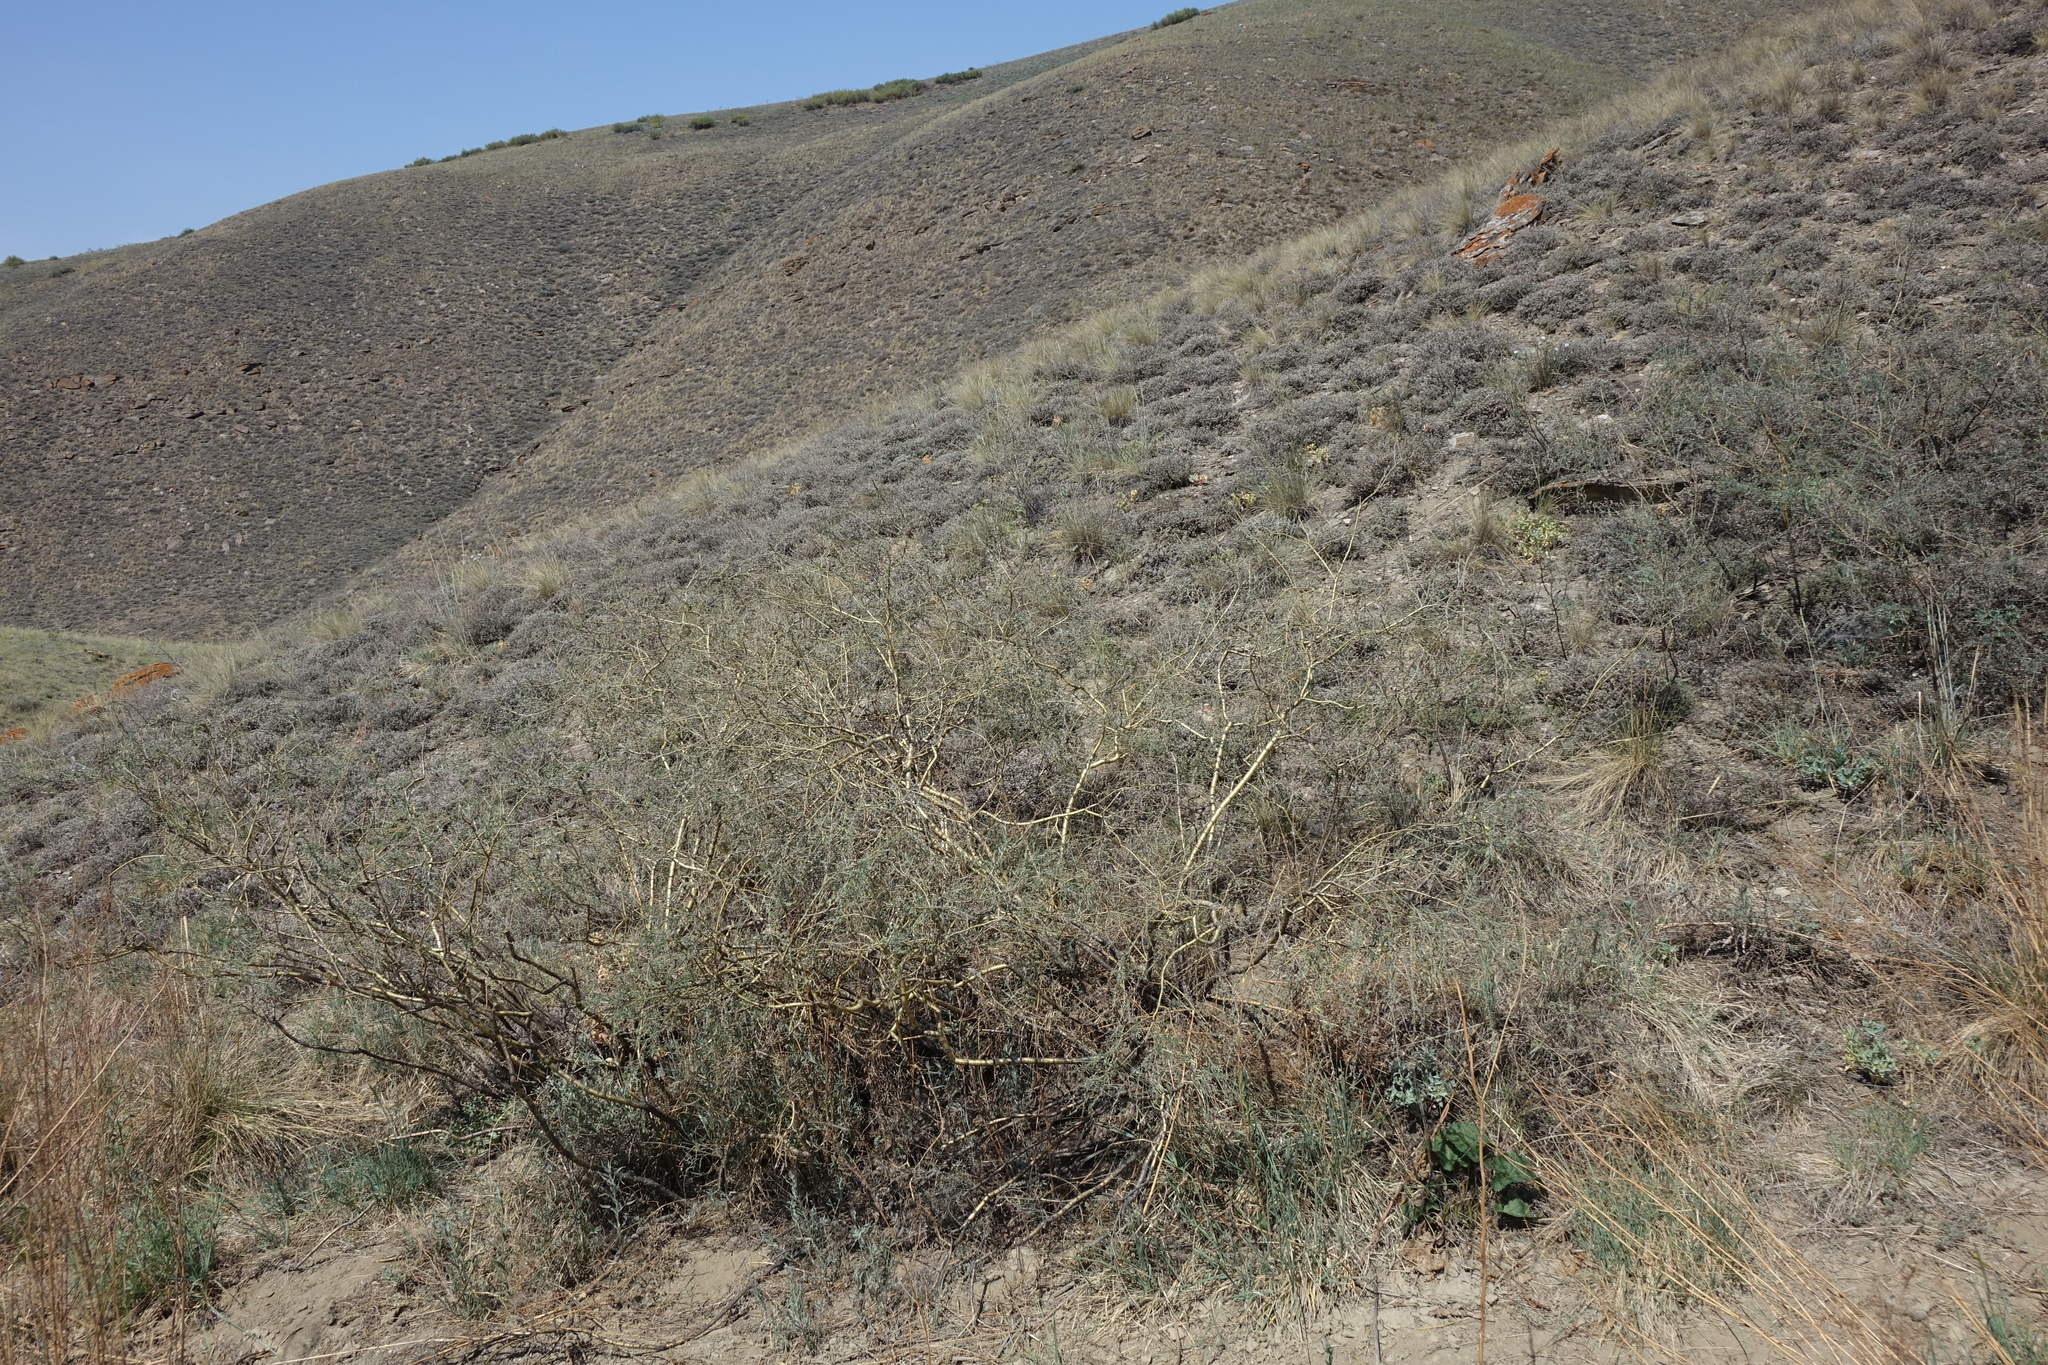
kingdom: Plantae
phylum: Tracheophyta
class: Magnoliopsida
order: Fabales
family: Fabaceae
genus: Caragana
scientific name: Caragana pygmaea
